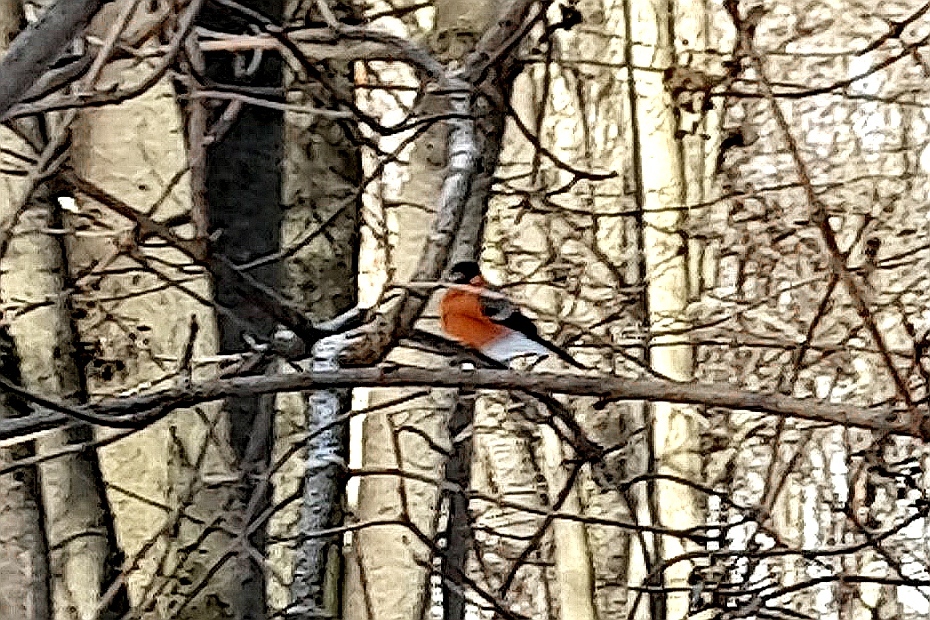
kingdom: Animalia
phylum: Chordata
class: Aves
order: Passeriformes
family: Fringillidae
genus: Pyrrhula
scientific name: Pyrrhula pyrrhula
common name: Eurasian bullfinch
